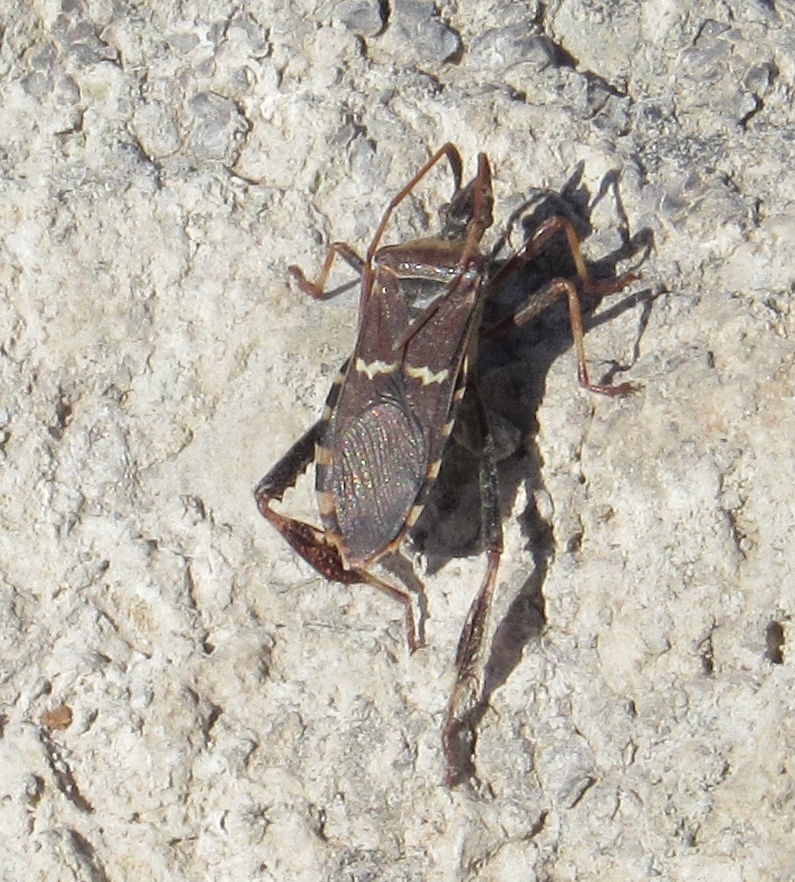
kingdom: Animalia
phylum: Arthropoda
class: Insecta
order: Hemiptera
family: Coreidae
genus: Leptoglossus
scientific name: Leptoglossus clypealis
